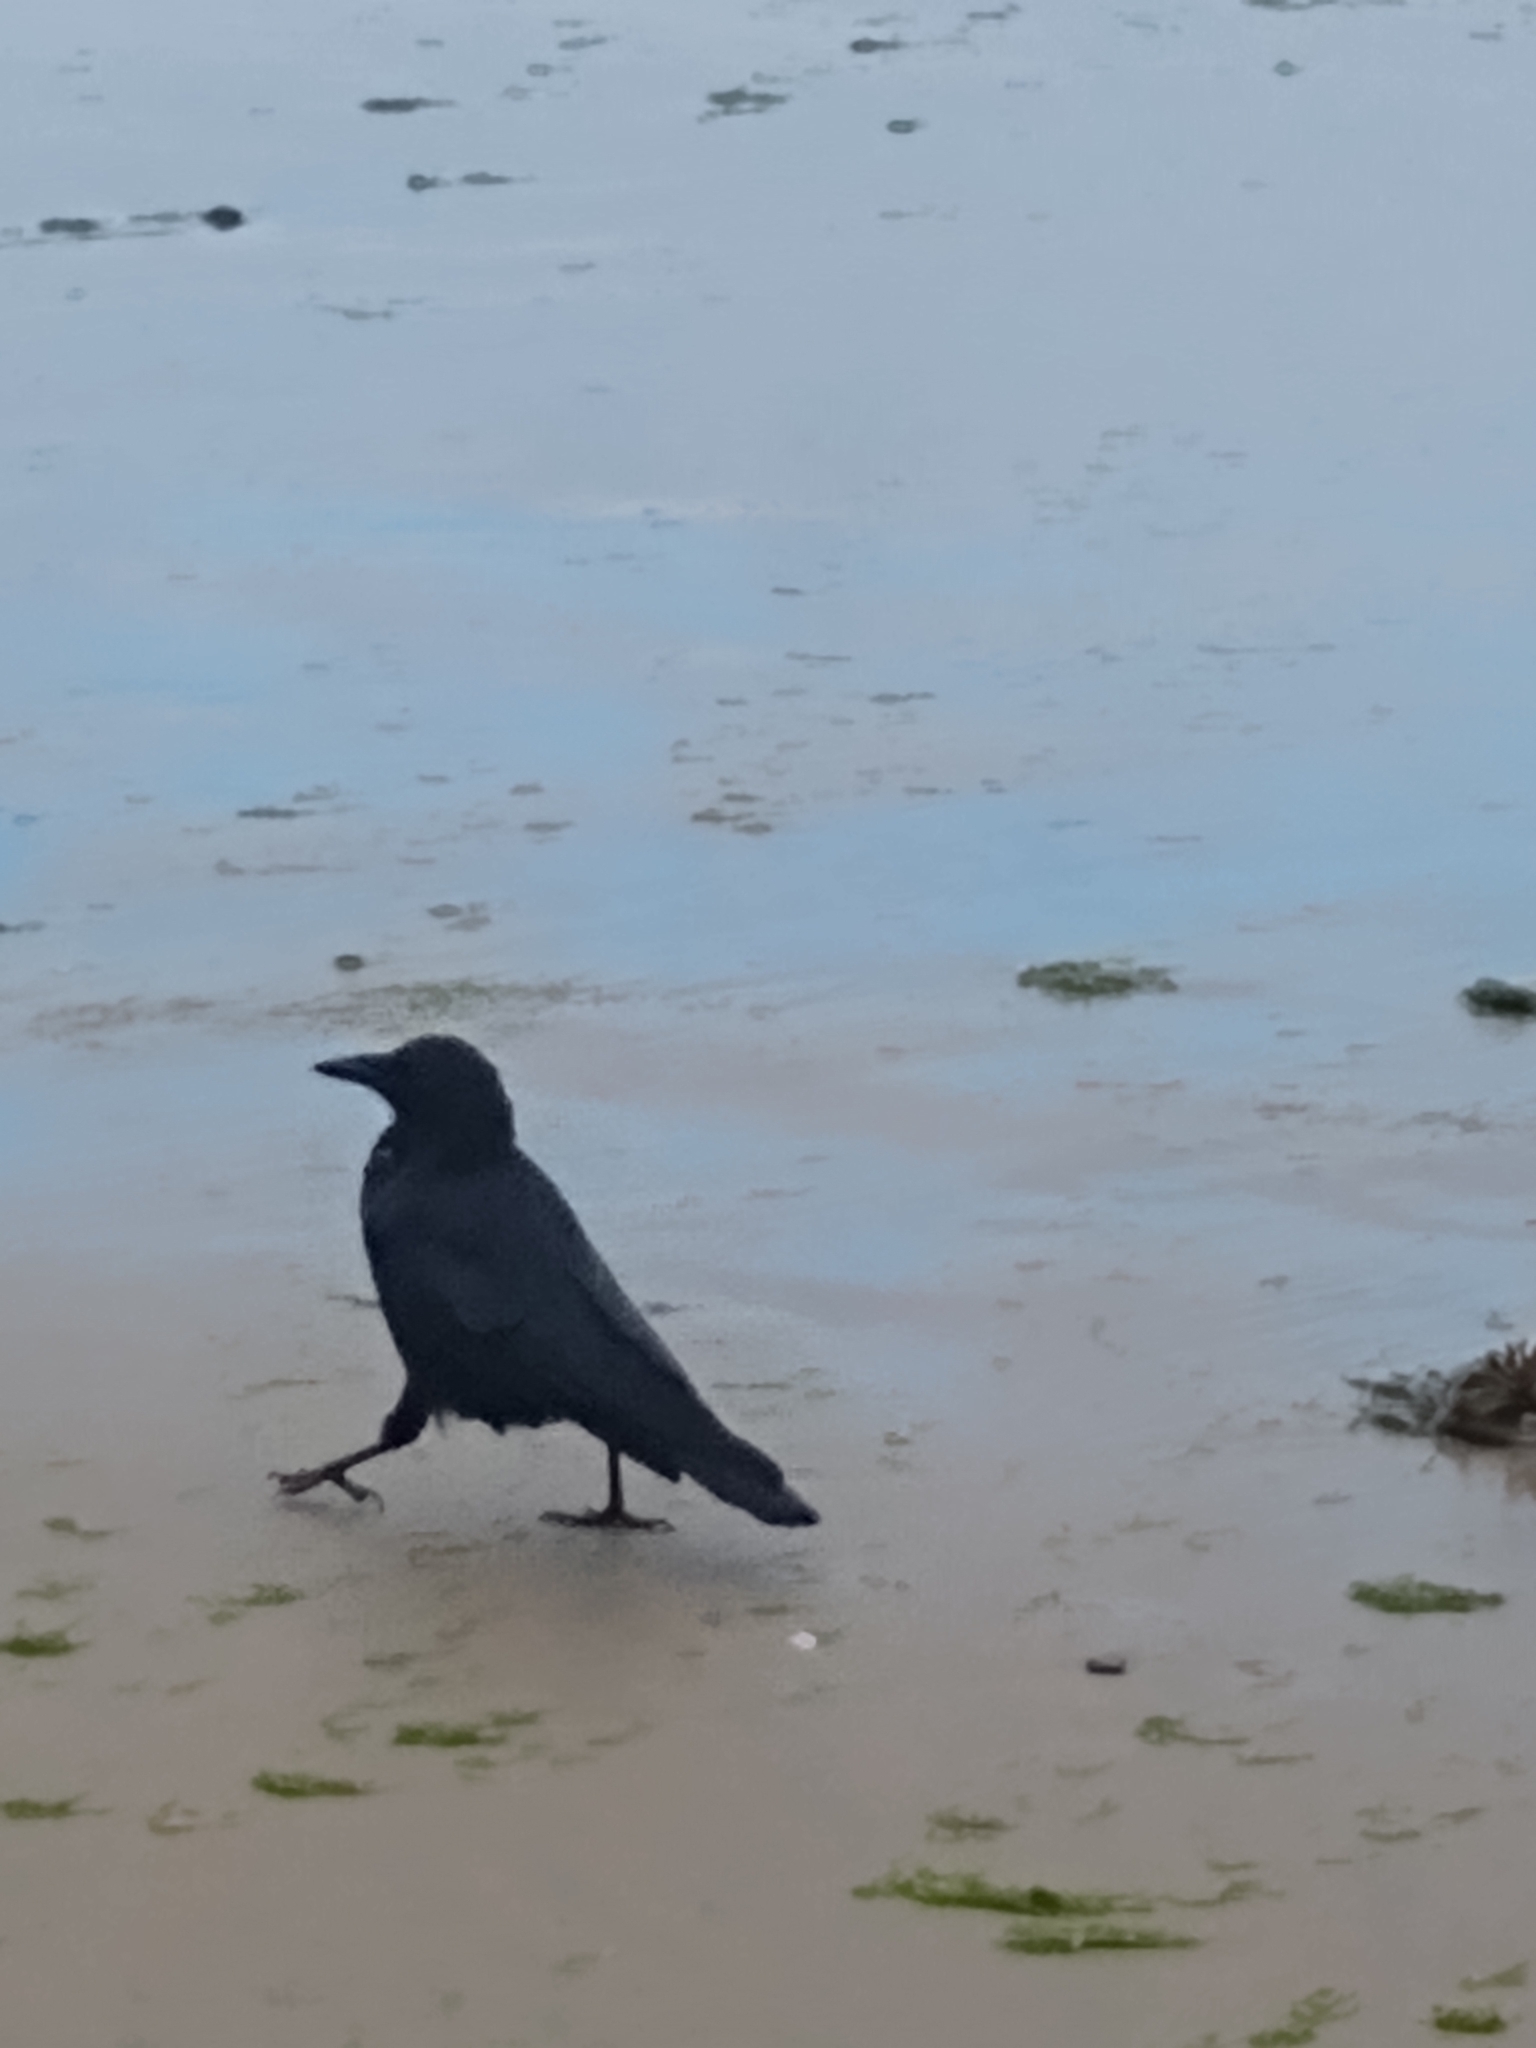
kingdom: Animalia
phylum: Chordata
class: Aves
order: Passeriformes
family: Corvidae
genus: Corvus
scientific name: Corvus brachyrhynchos
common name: American crow
